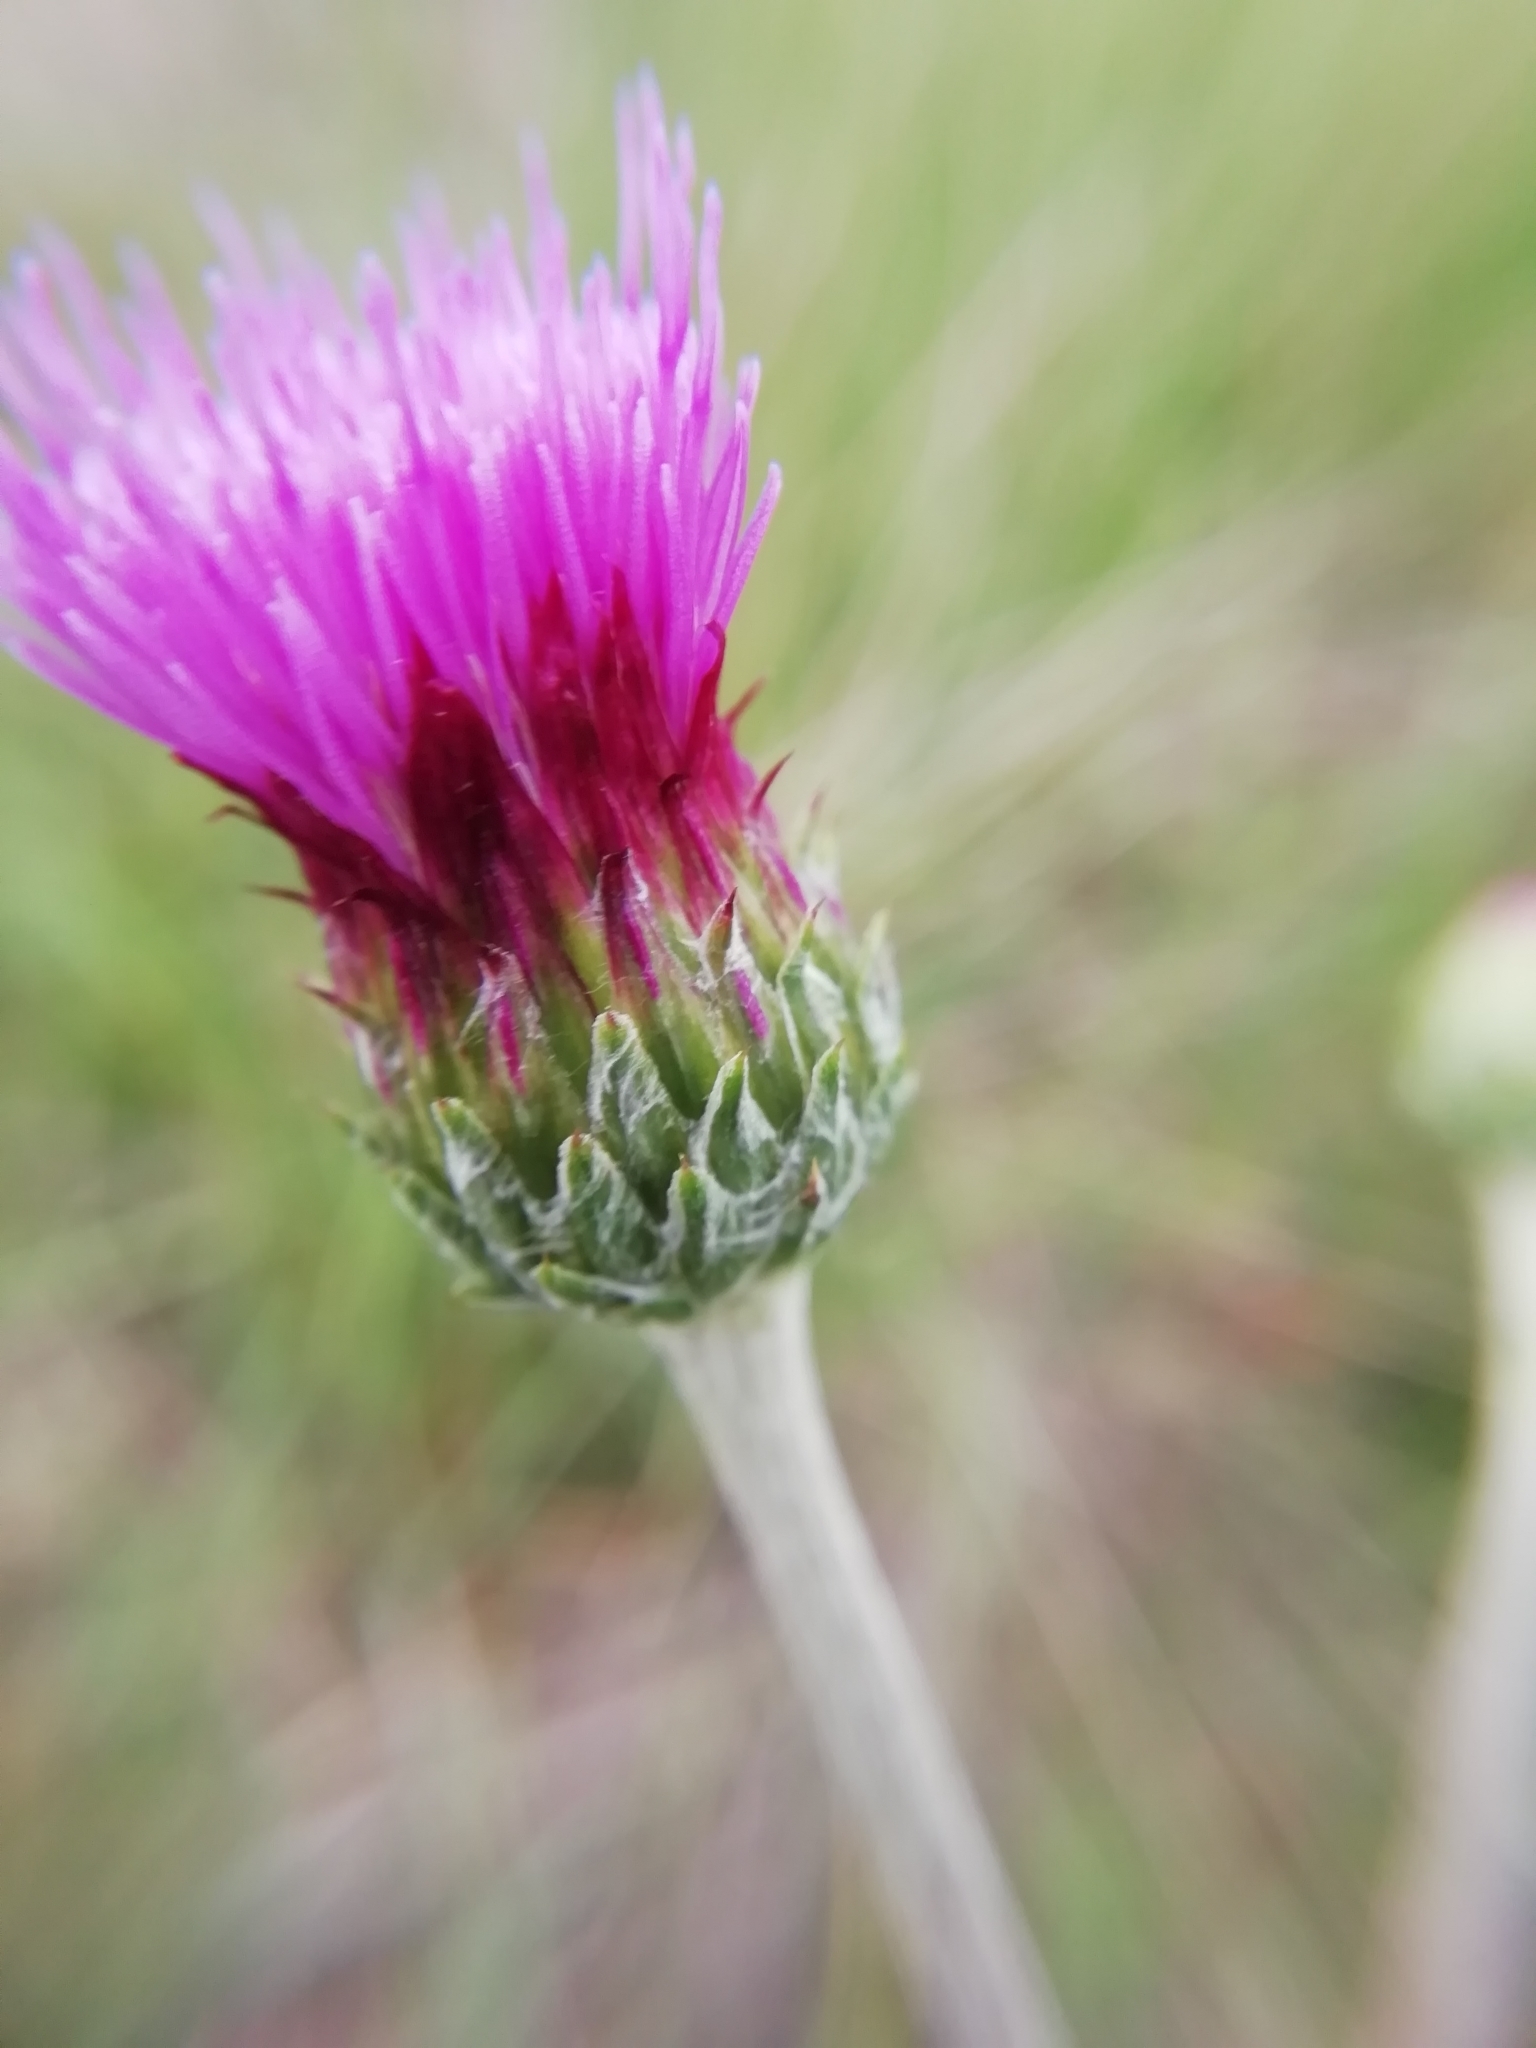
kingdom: Plantae
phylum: Tracheophyta
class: Magnoliopsida
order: Asterales
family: Asteraceae
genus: Cirsium
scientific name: Cirsium tuberosum
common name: Tuberous thistle
